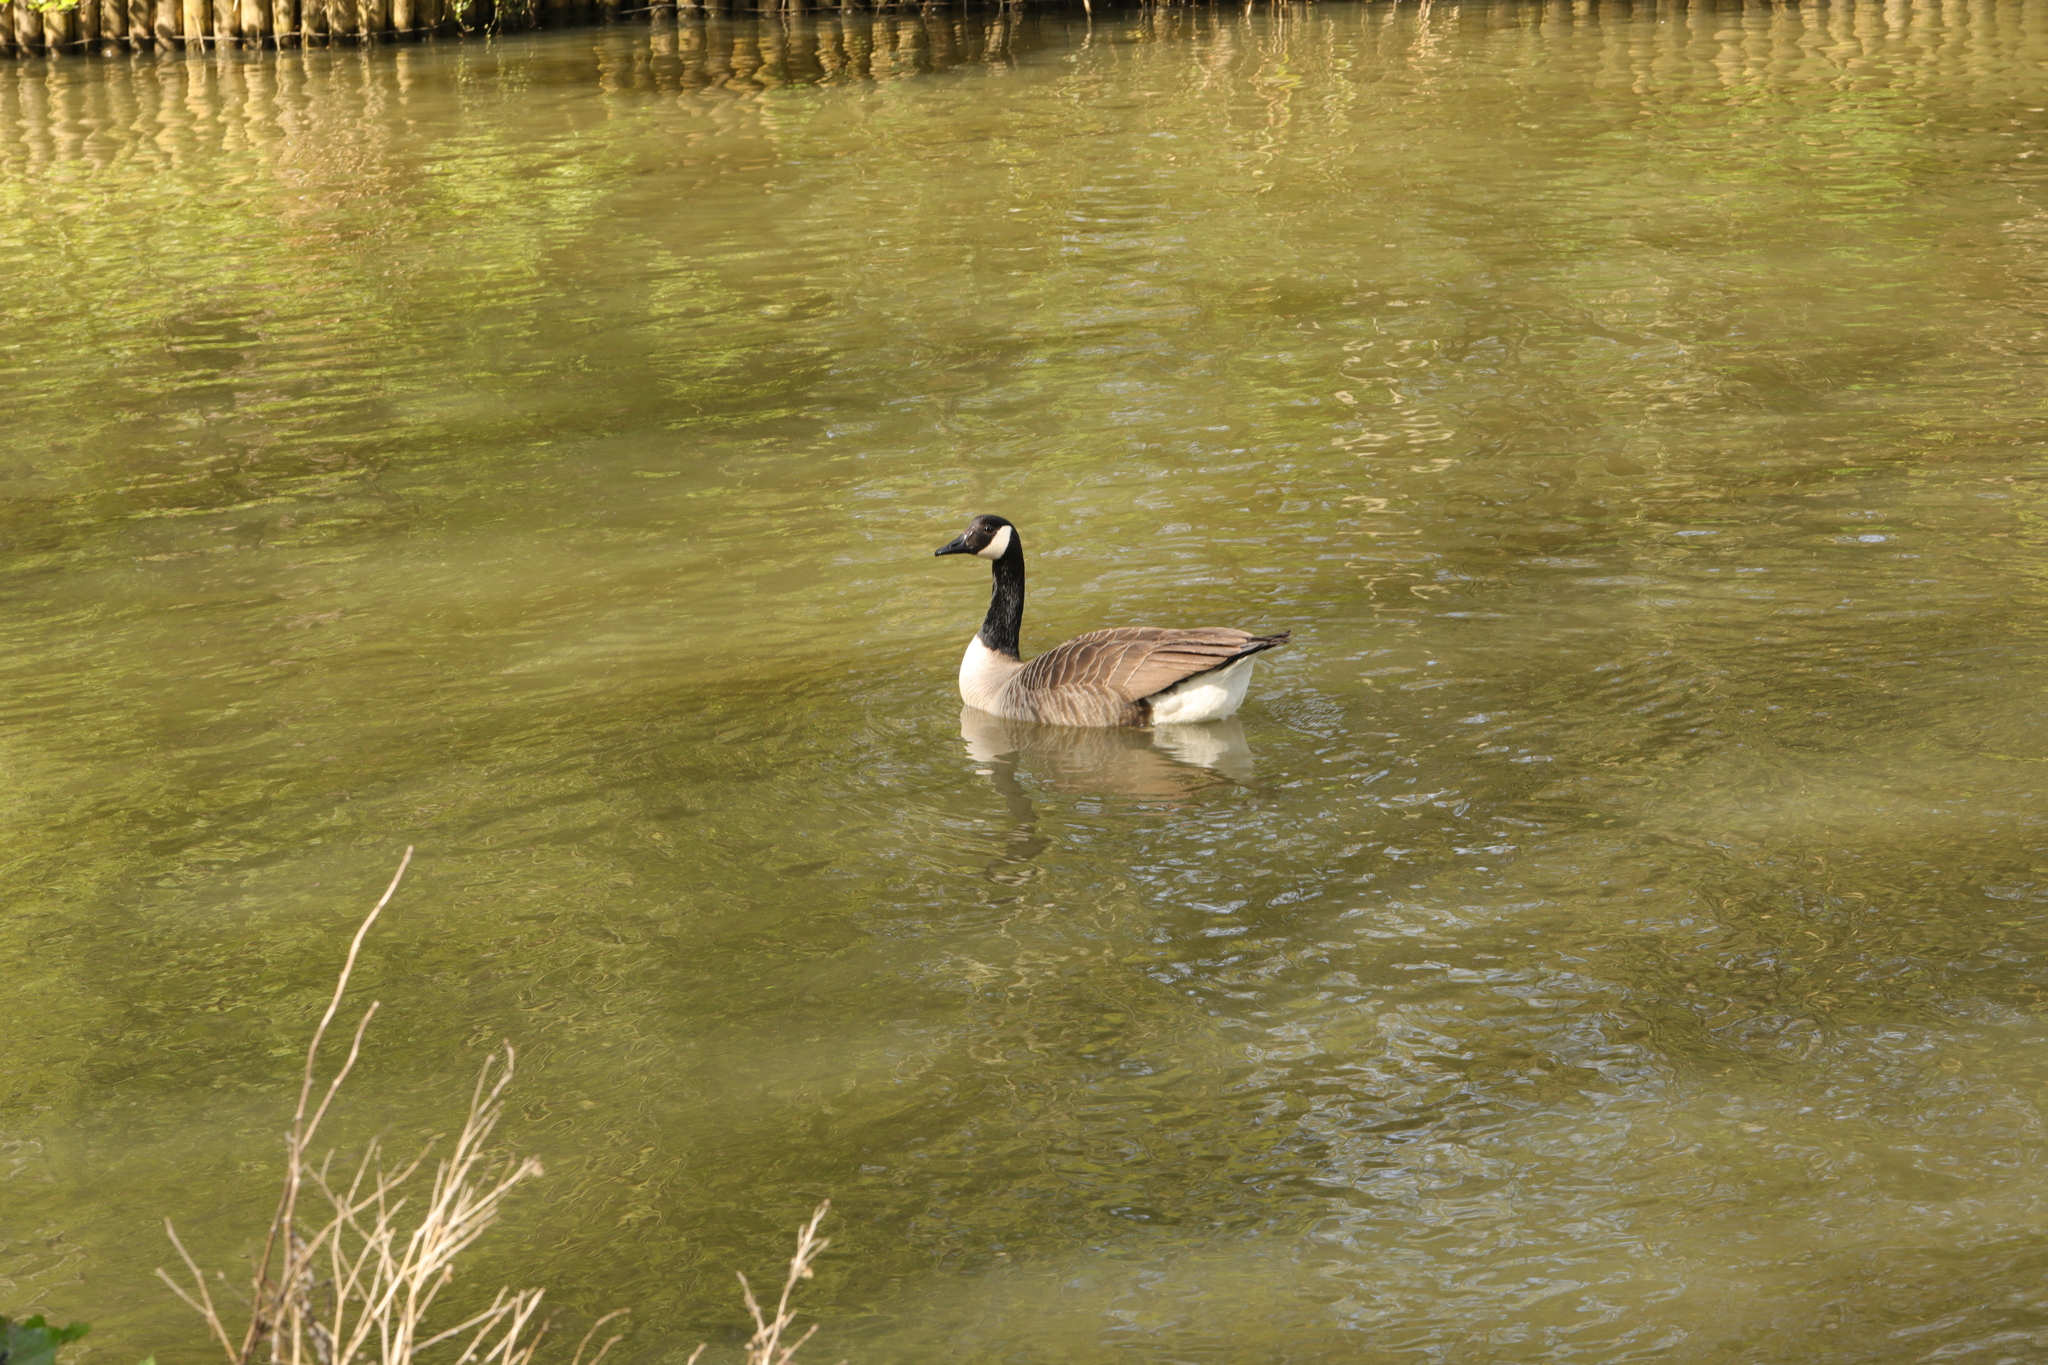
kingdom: Animalia
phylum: Chordata
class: Aves
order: Anseriformes
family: Anatidae
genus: Branta
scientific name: Branta canadensis
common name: Canada goose
